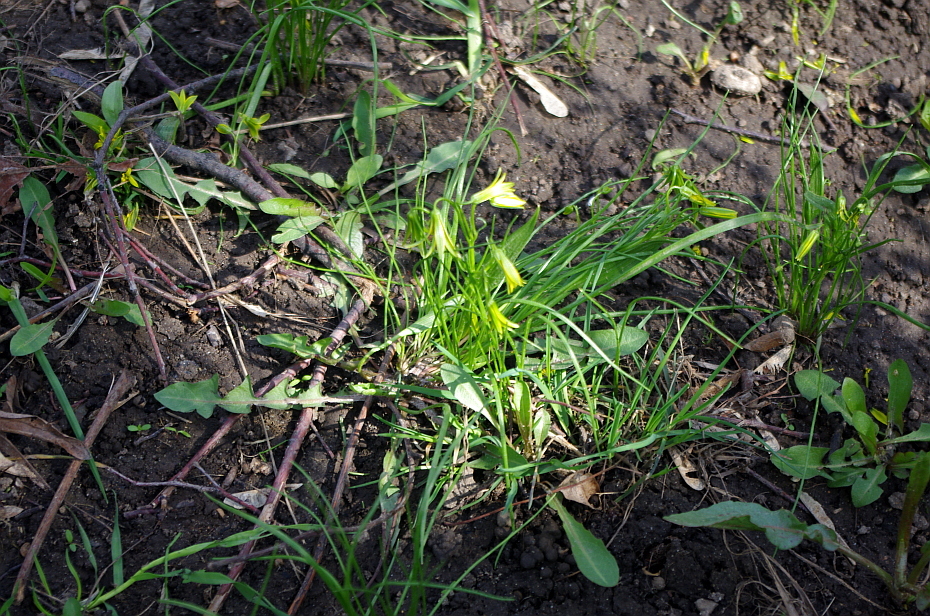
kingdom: Plantae
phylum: Tracheophyta
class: Liliopsida
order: Liliales
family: Liliaceae
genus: Gagea
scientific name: Gagea minima
